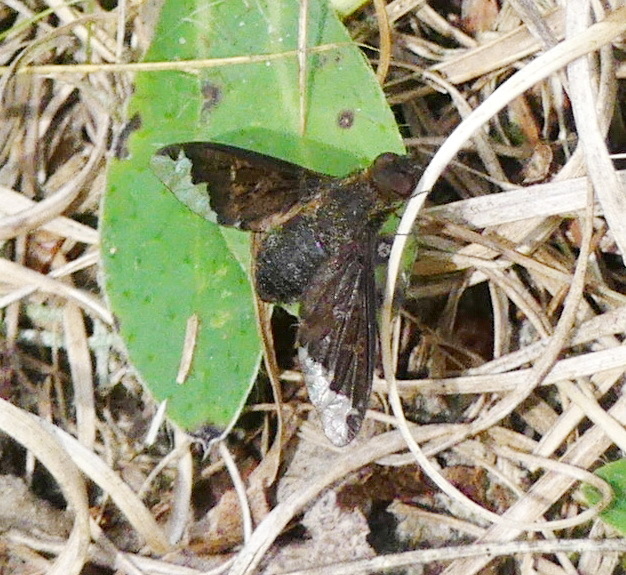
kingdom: Animalia
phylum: Arthropoda
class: Insecta
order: Diptera
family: Bombyliidae
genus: Hemipenthes
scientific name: Hemipenthes sinuosus
